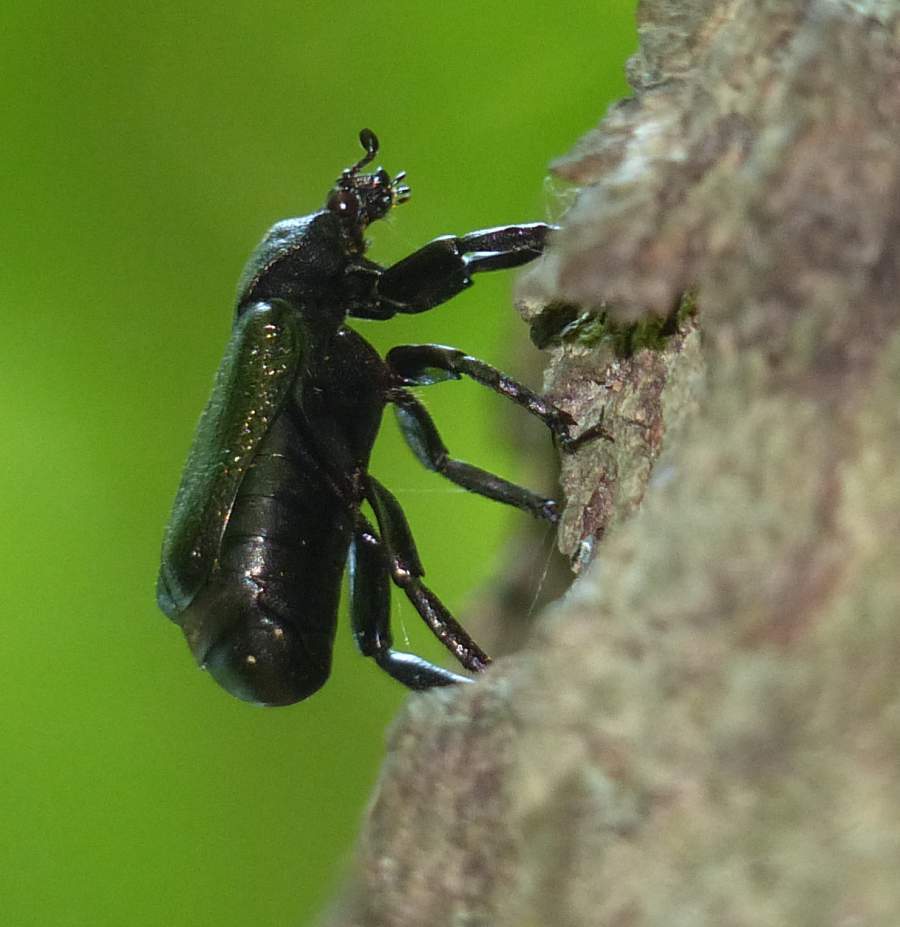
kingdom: Animalia
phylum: Arthropoda
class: Insecta
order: Coleoptera
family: Scarabaeidae
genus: Osmoderma
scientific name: Osmoderma scabra
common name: Rough hermit beetle
